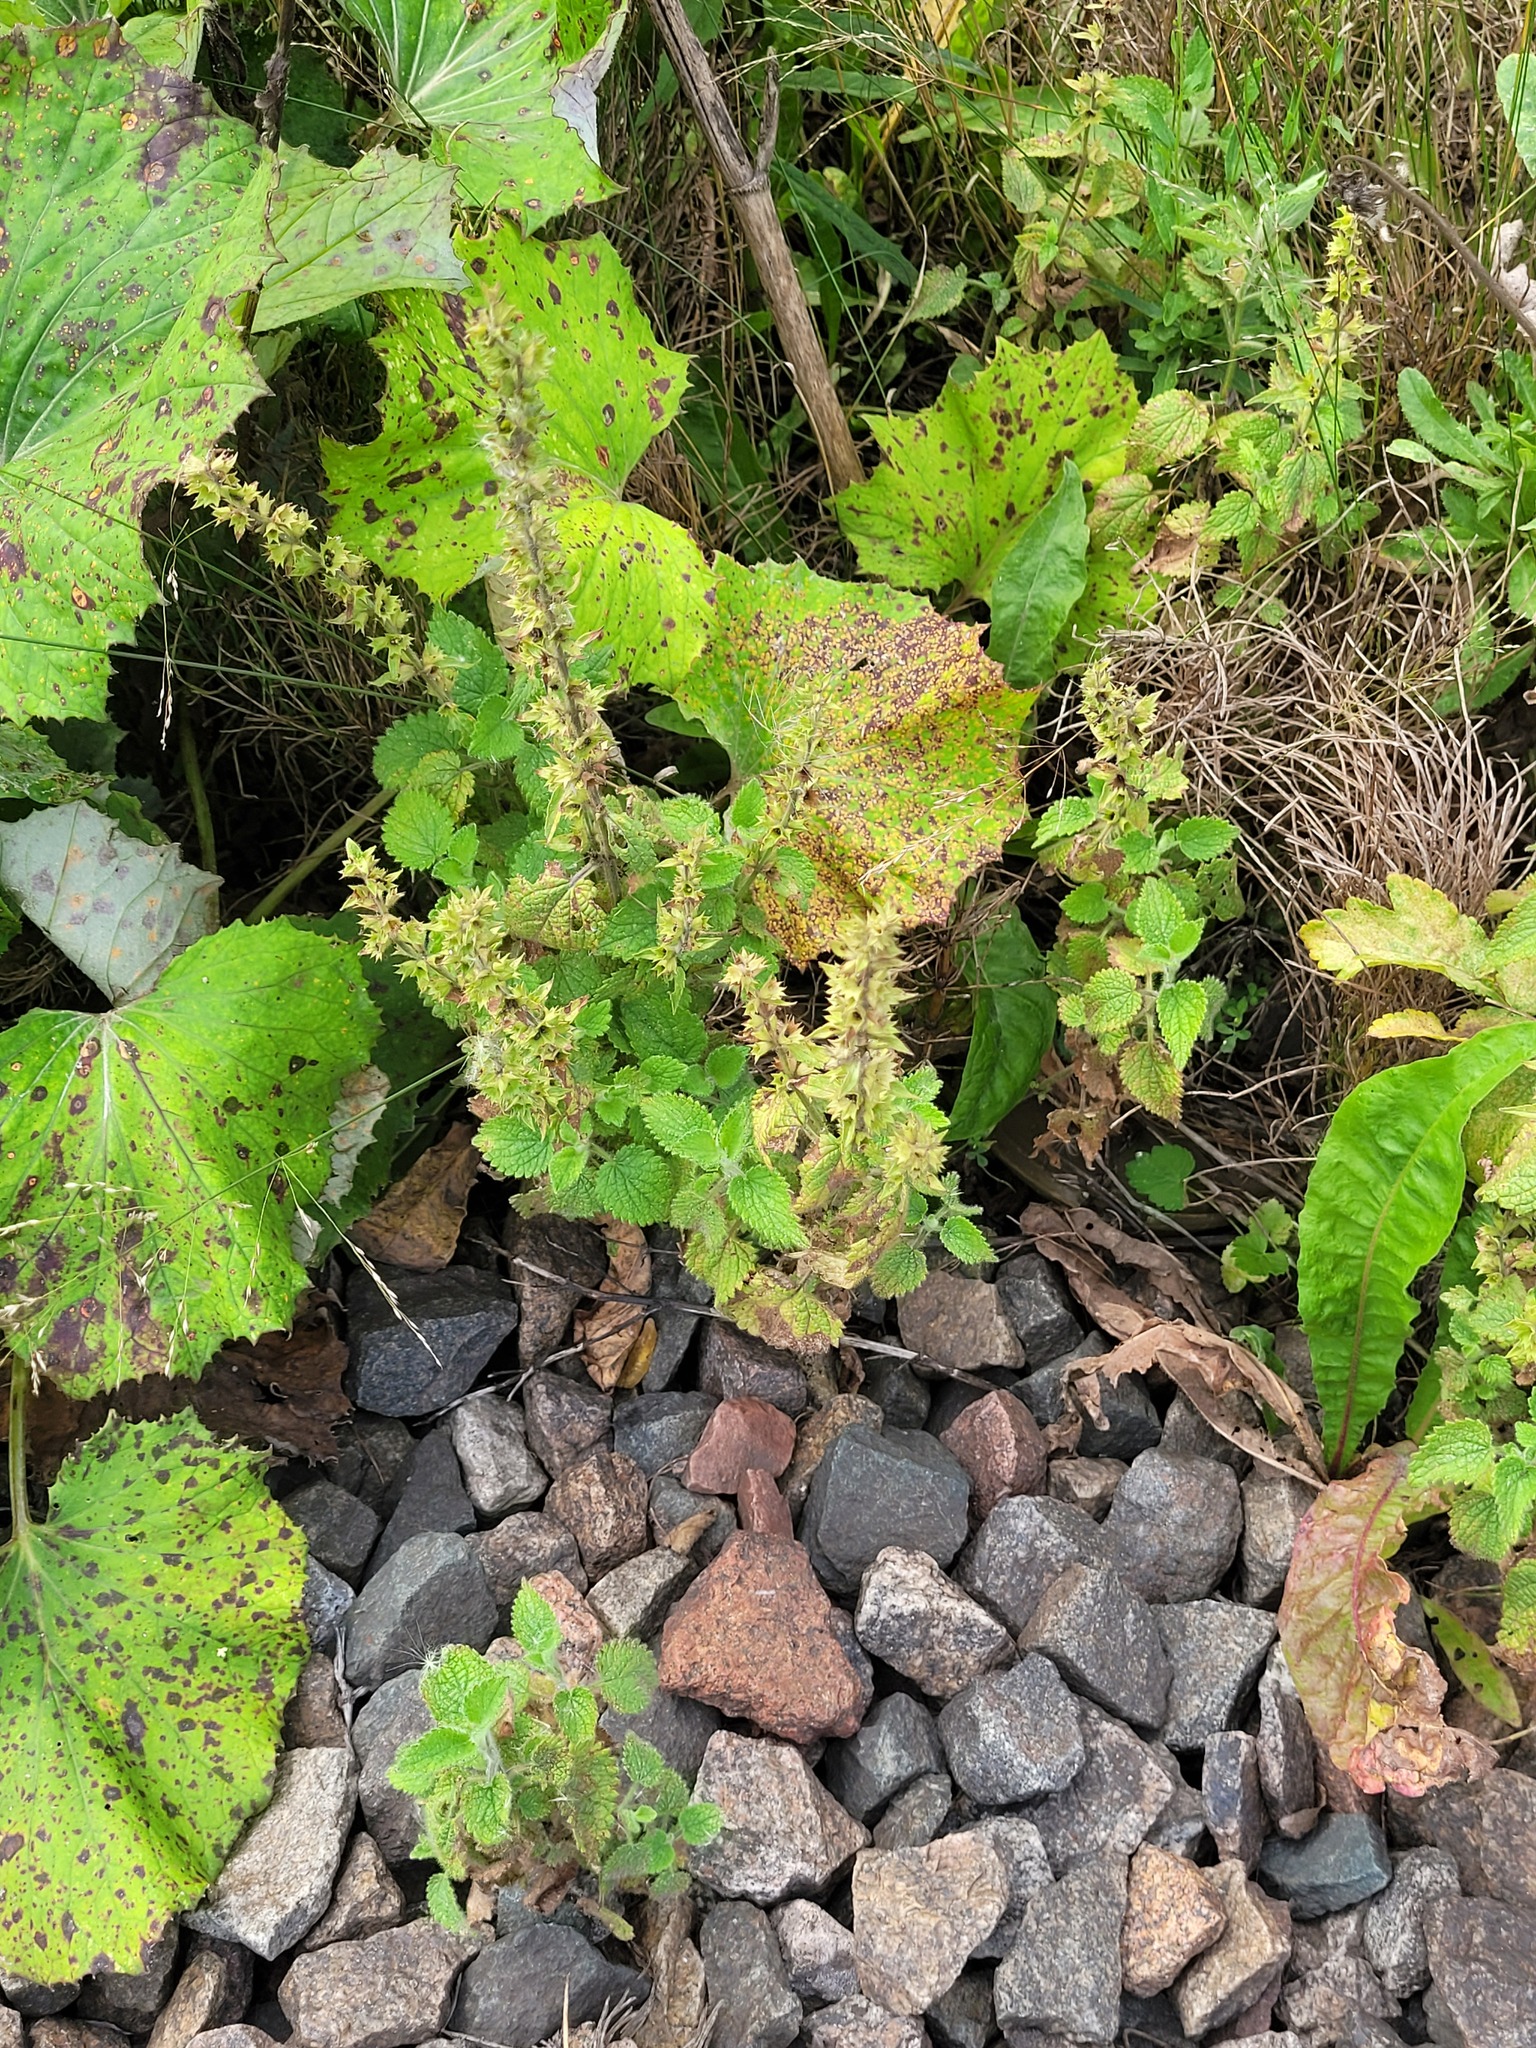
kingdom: Plantae
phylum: Tracheophyta
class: Magnoliopsida
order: Lamiales
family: Lamiaceae
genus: Stachys
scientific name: Stachys sylvatica
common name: Hedge woundwort
